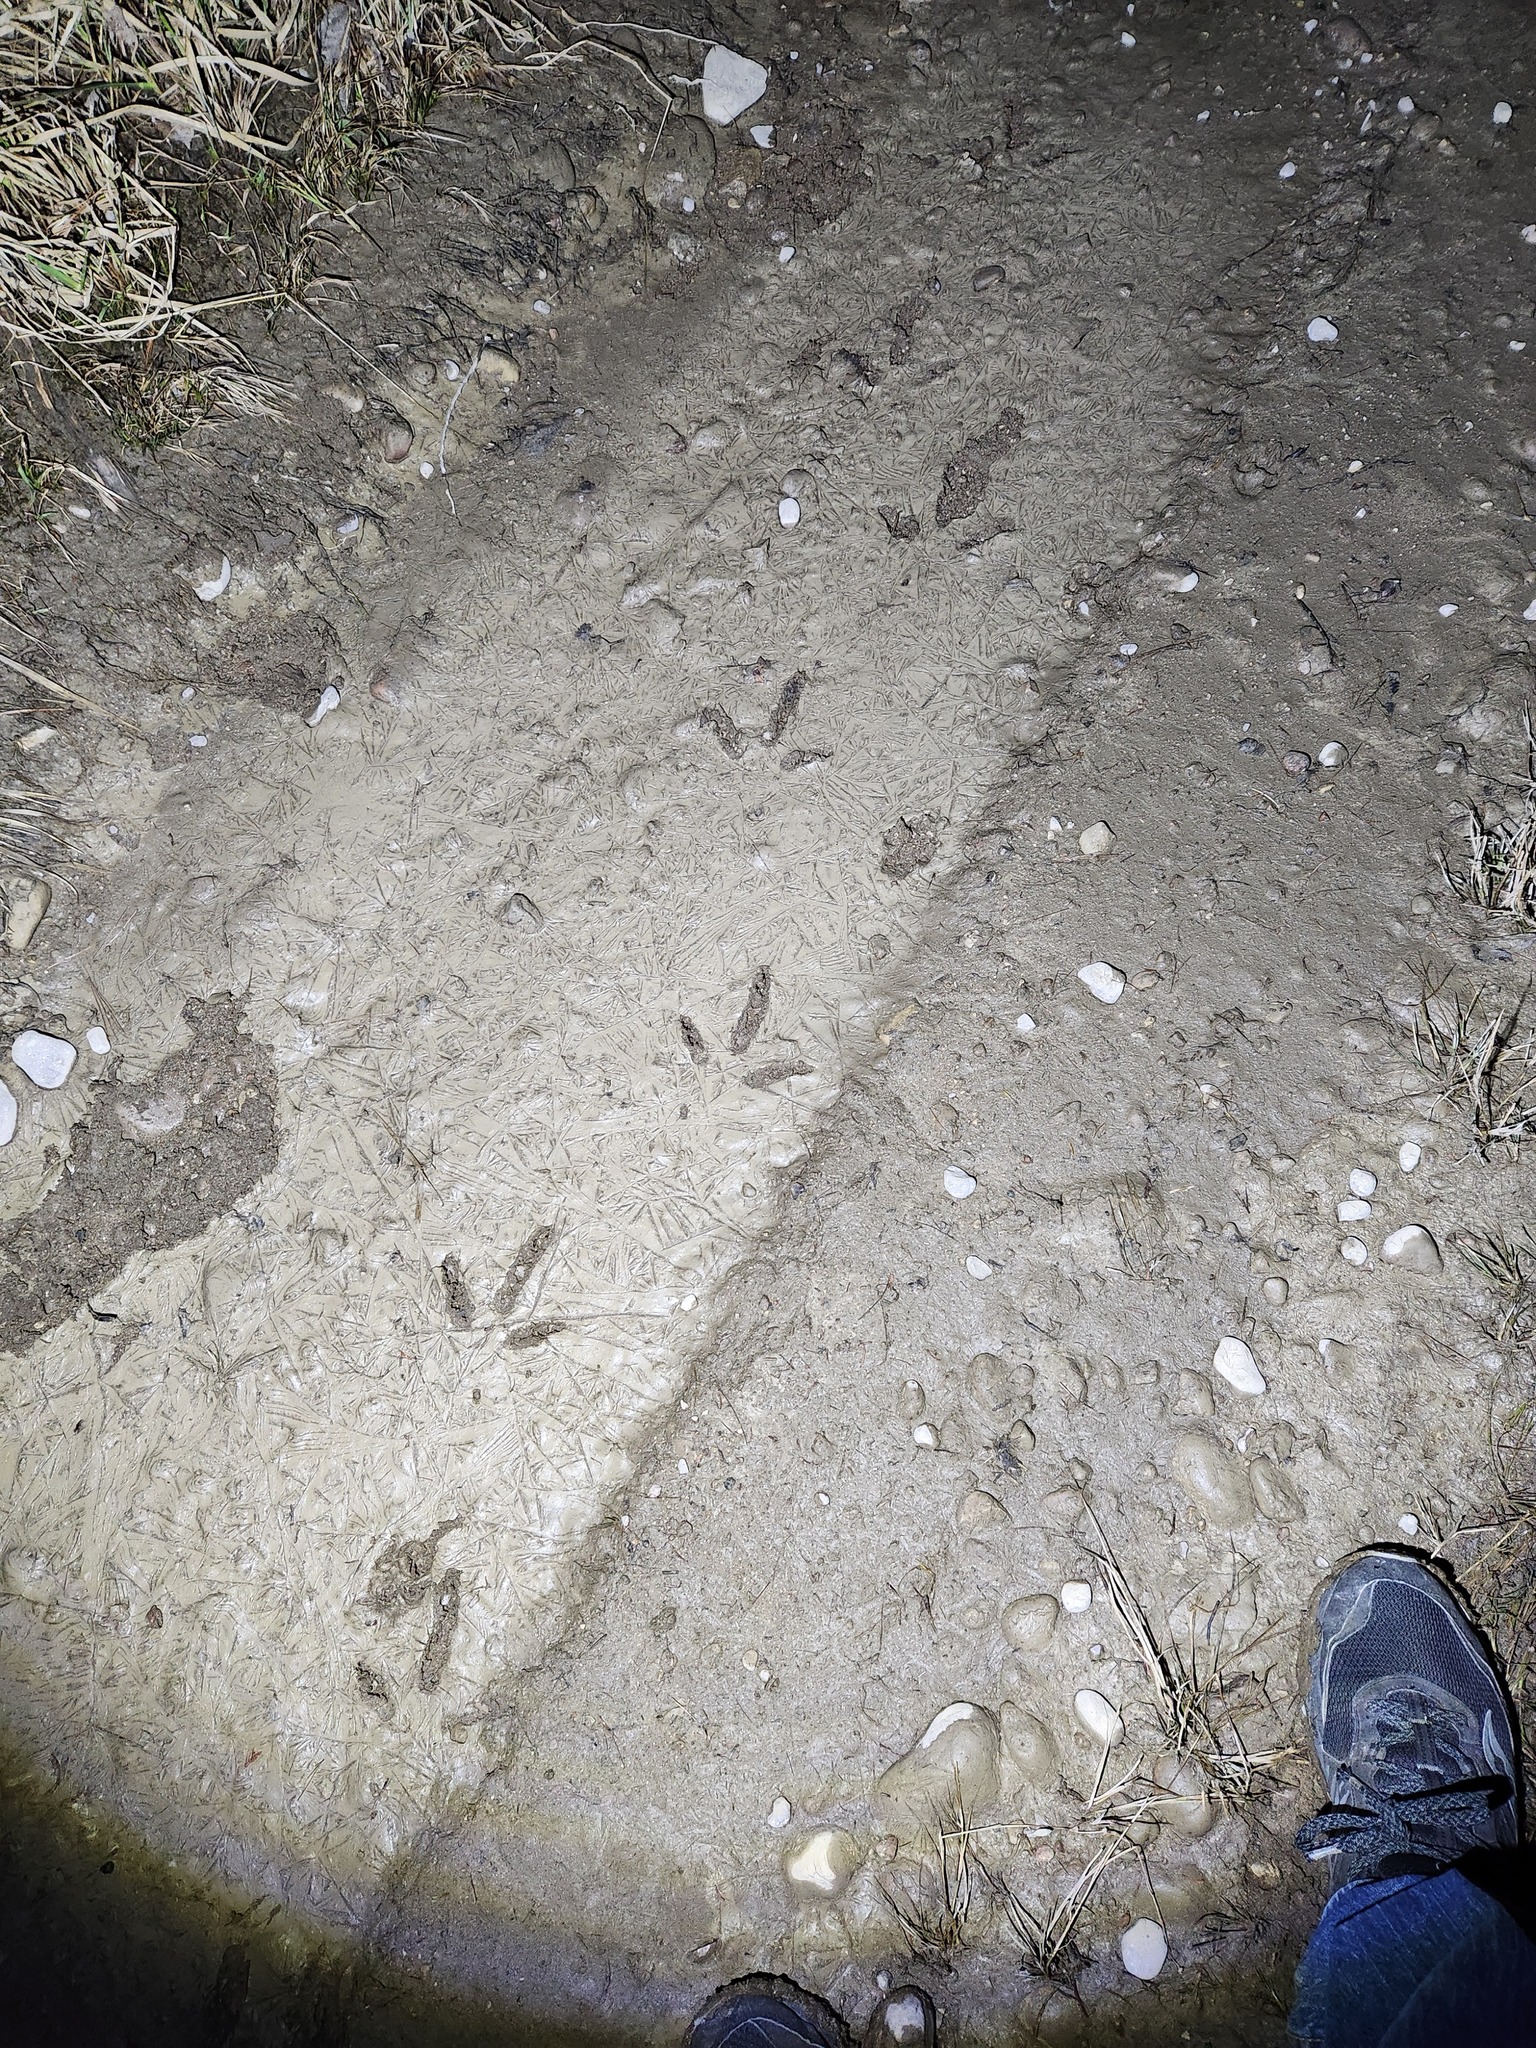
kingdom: Animalia
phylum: Chordata
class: Aves
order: Galliformes
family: Phasianidae
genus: Meleagris
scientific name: Meleagris gallopavo
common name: Wild turkey
